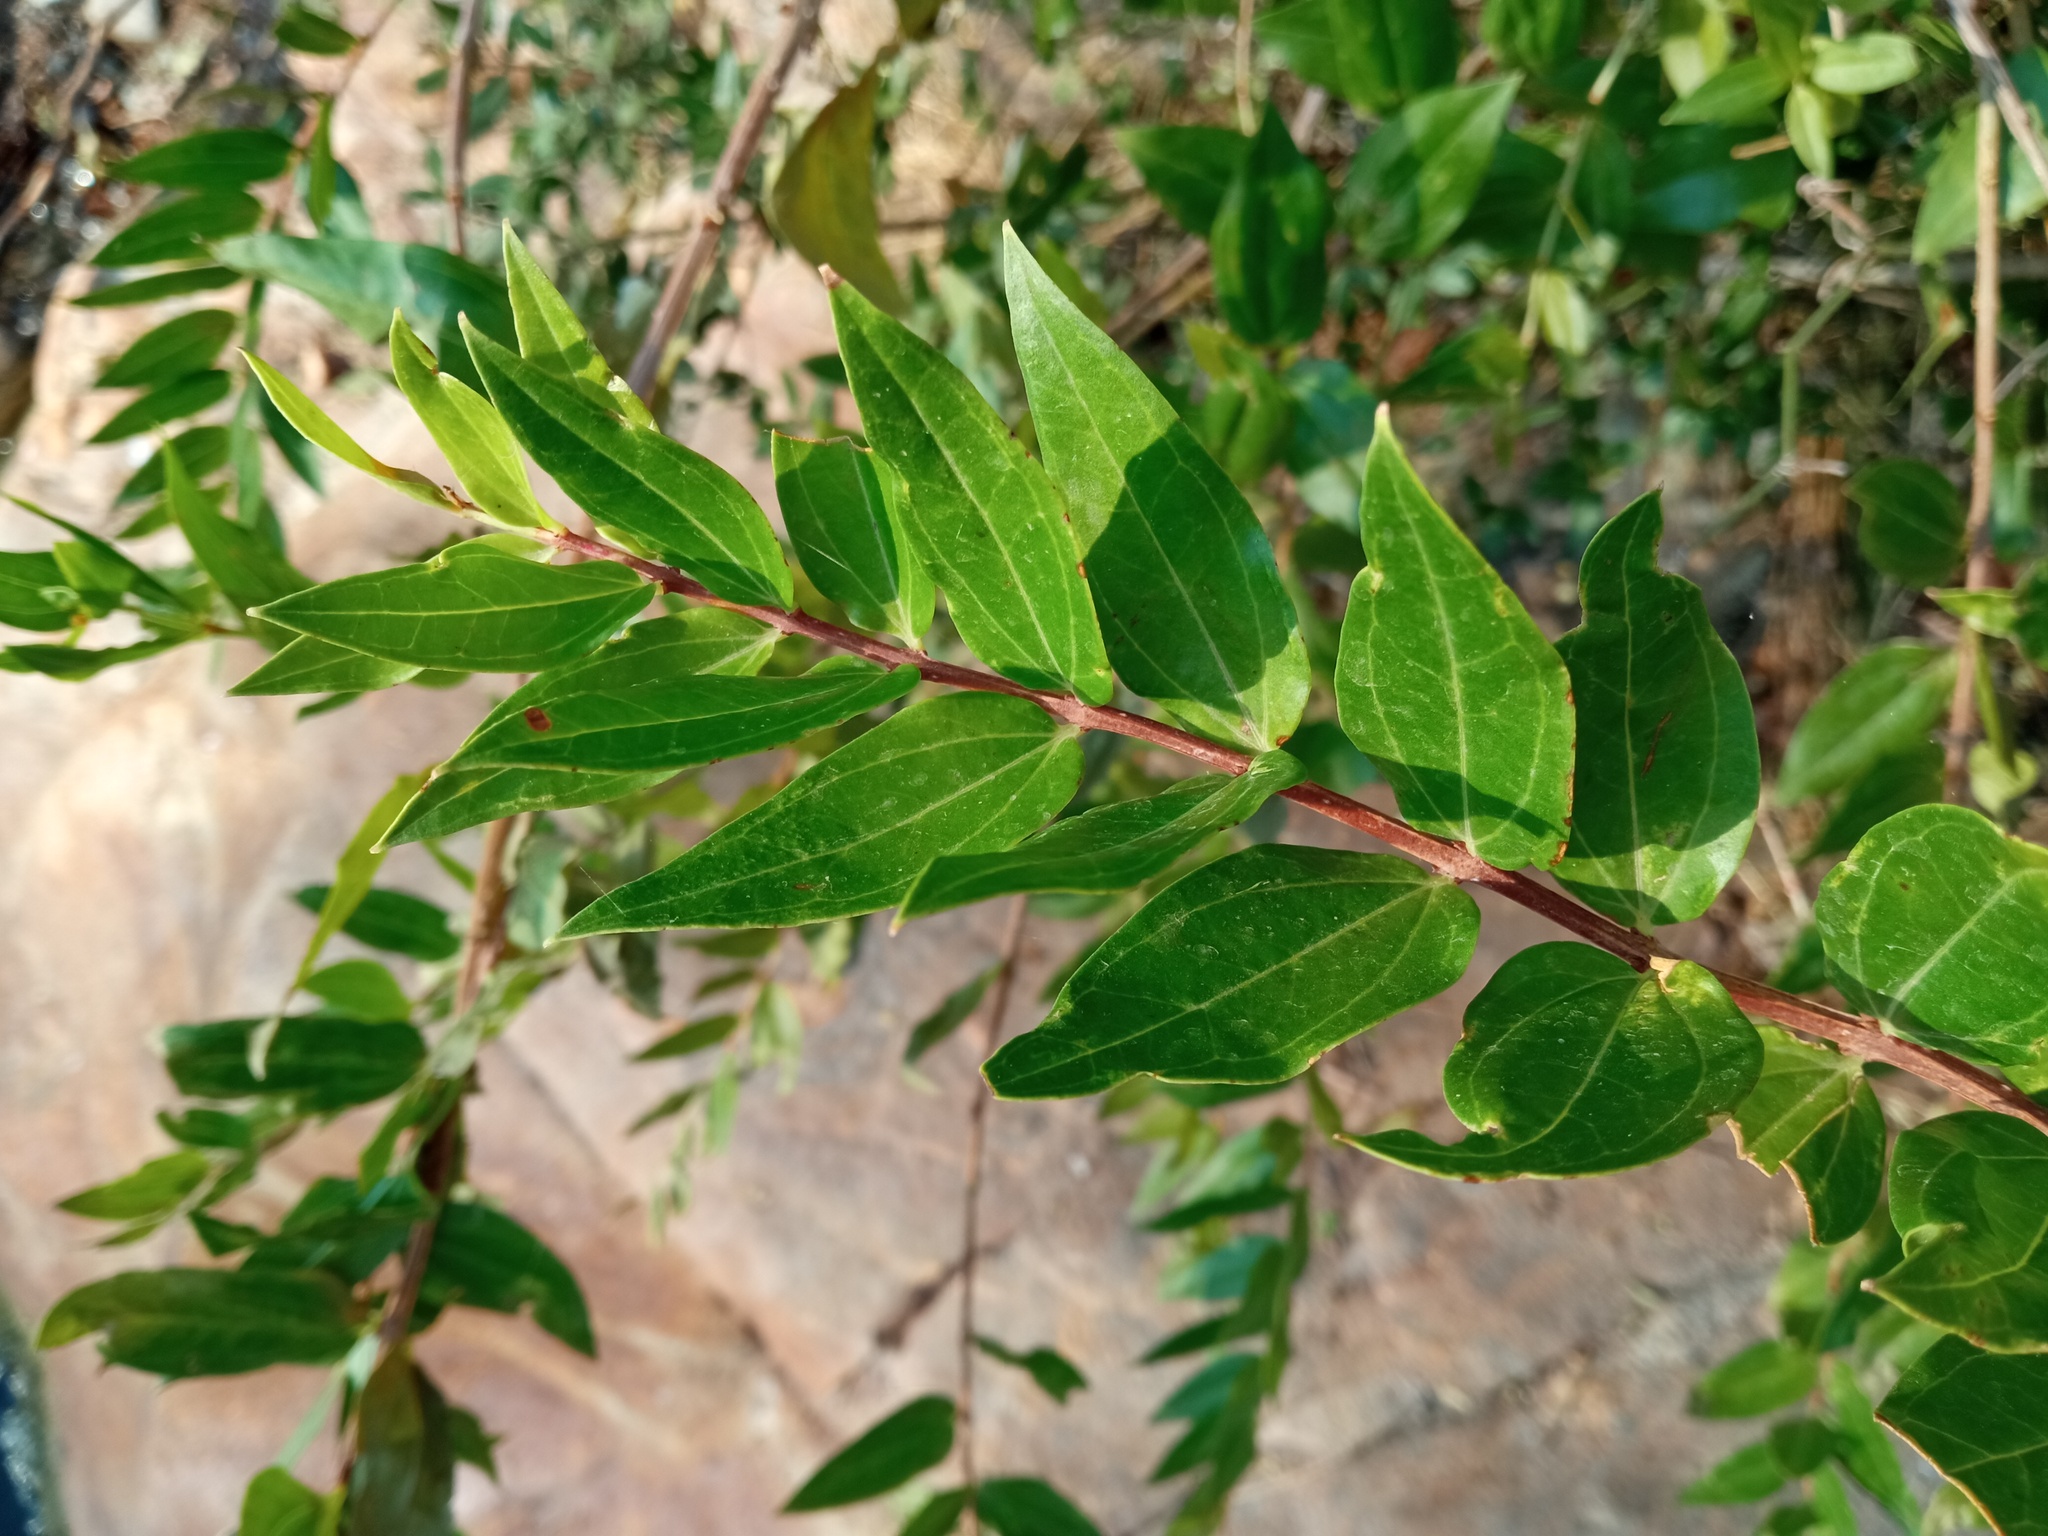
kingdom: Plantae
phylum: Tracheophyta
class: Magnoliopsida
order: Cucurbitales
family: Coriariaceae
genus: Coriaria
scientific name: Coriaria myrtifolia
